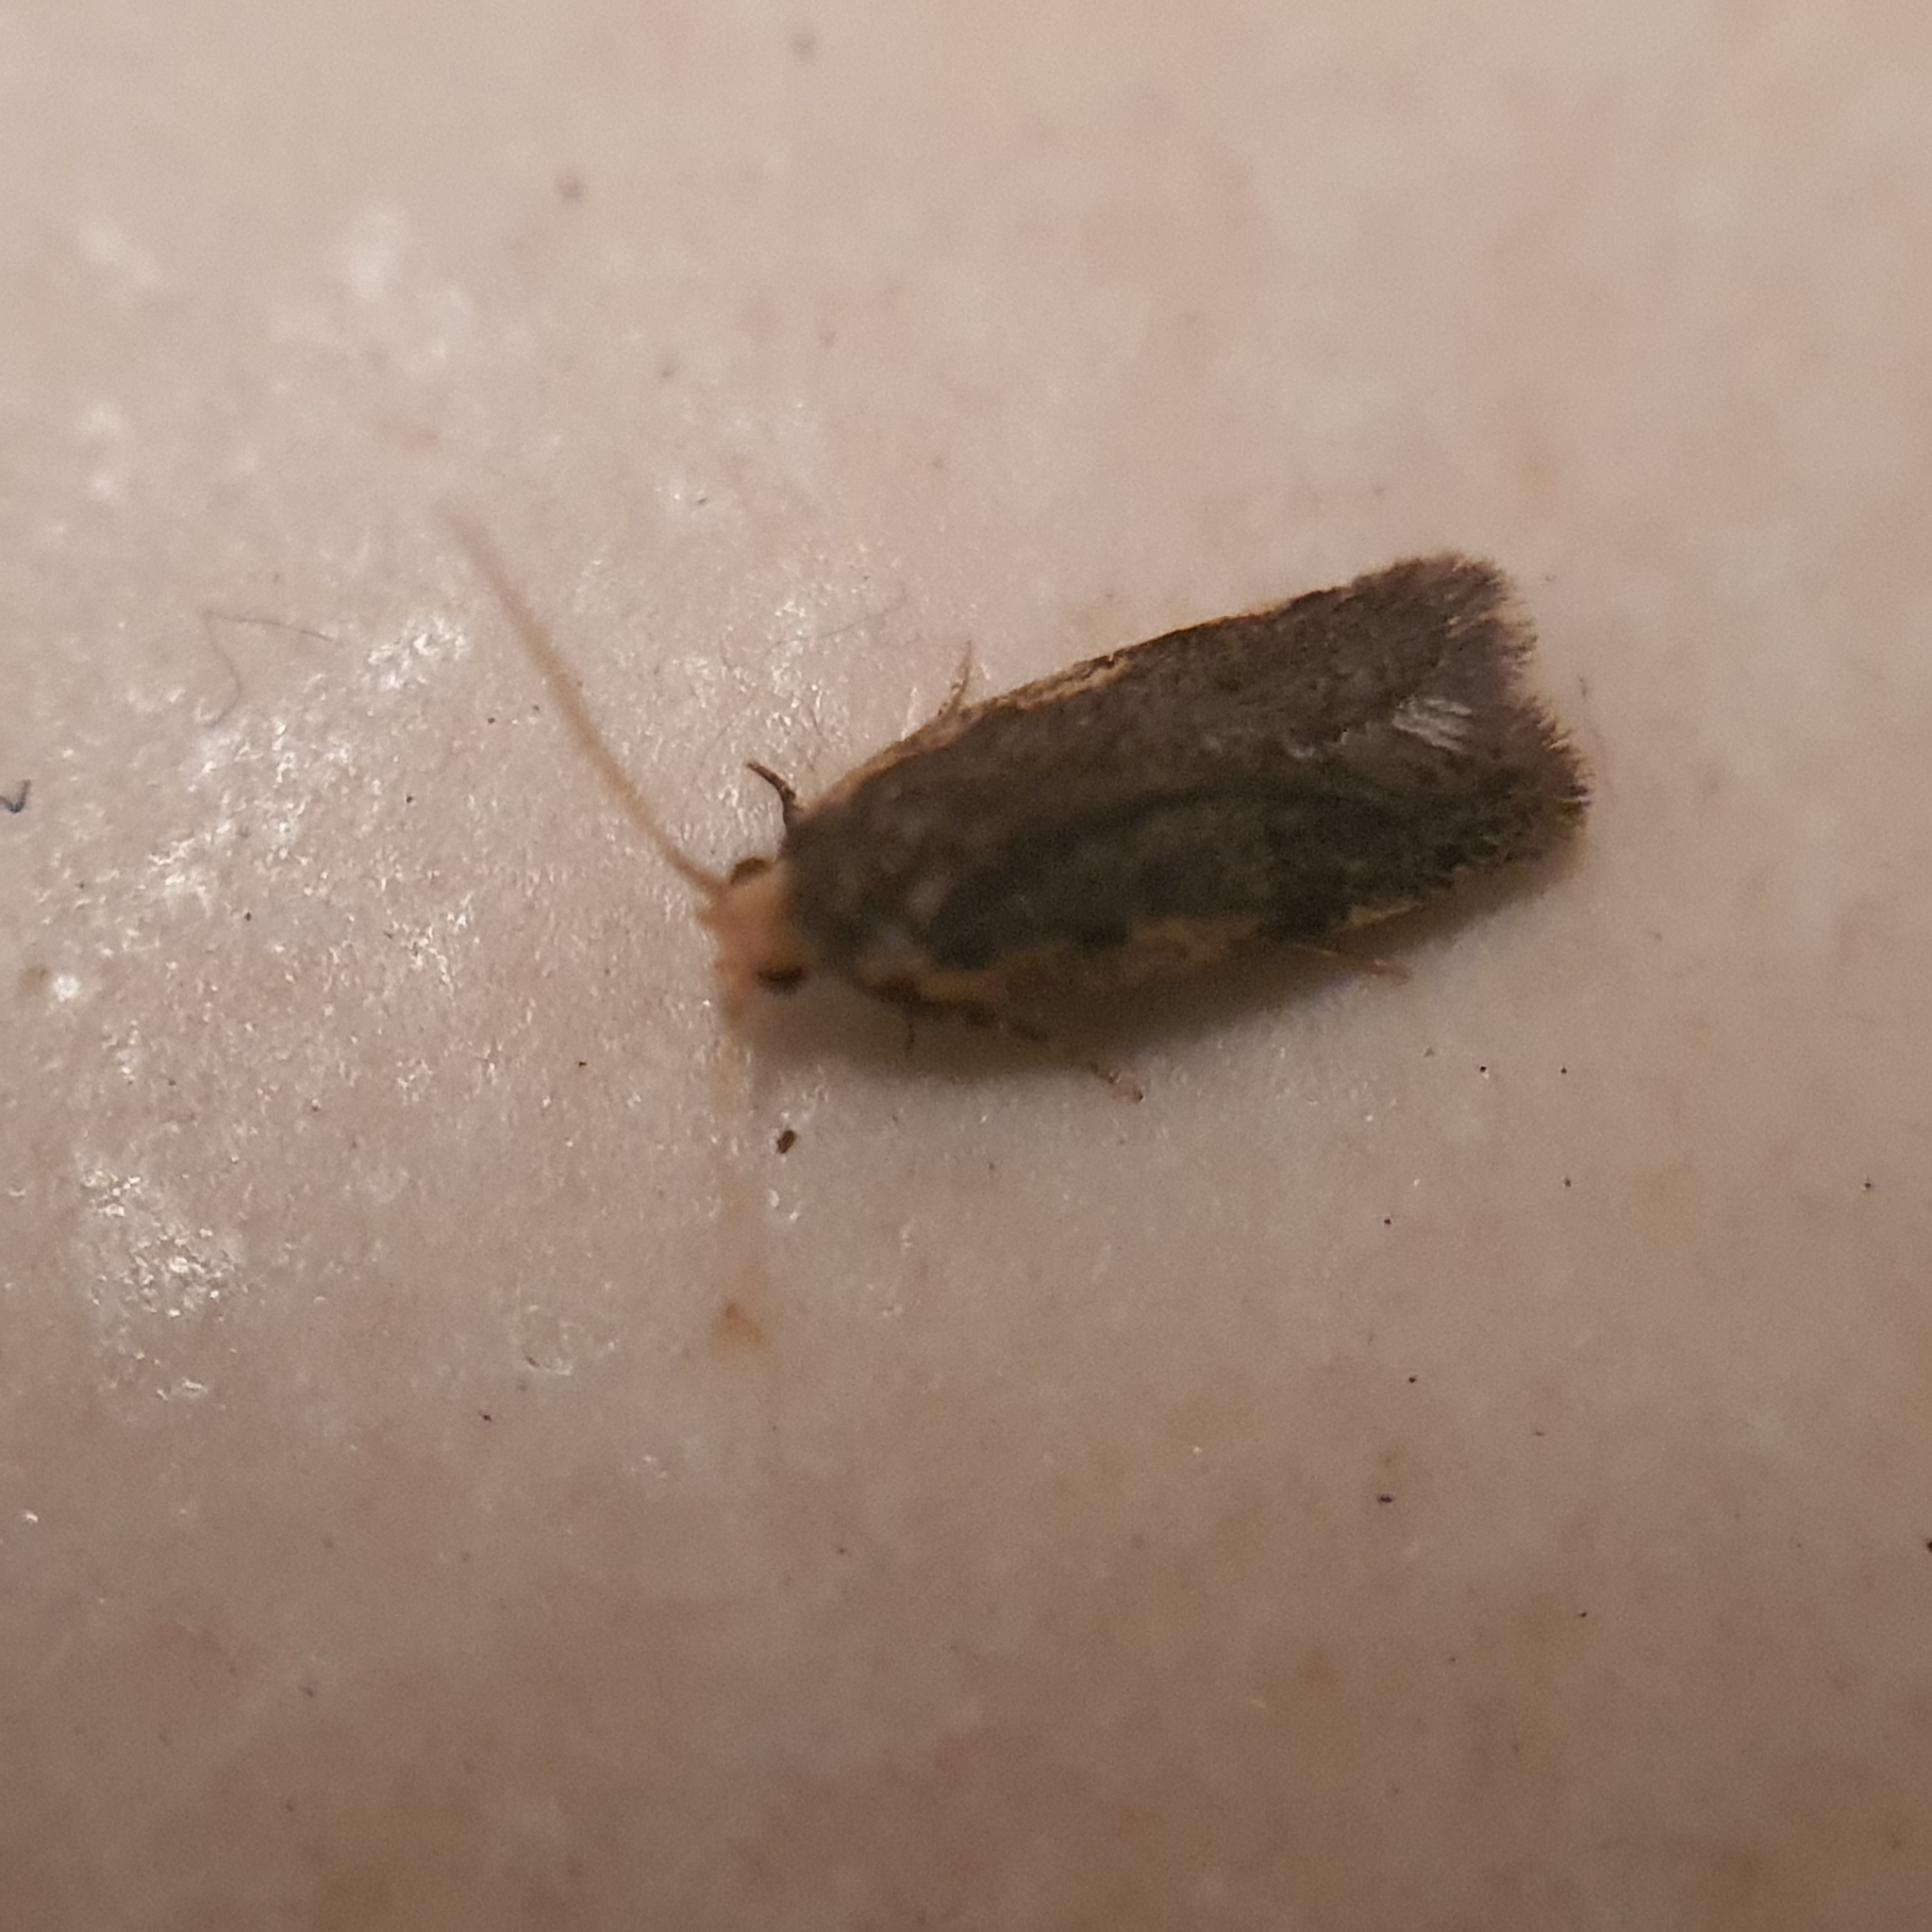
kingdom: Animalia
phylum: Arthropoda
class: Insecta
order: Lepidoptera
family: Oecophoridae
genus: Hoplostega
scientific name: Hoplostega ochroma
